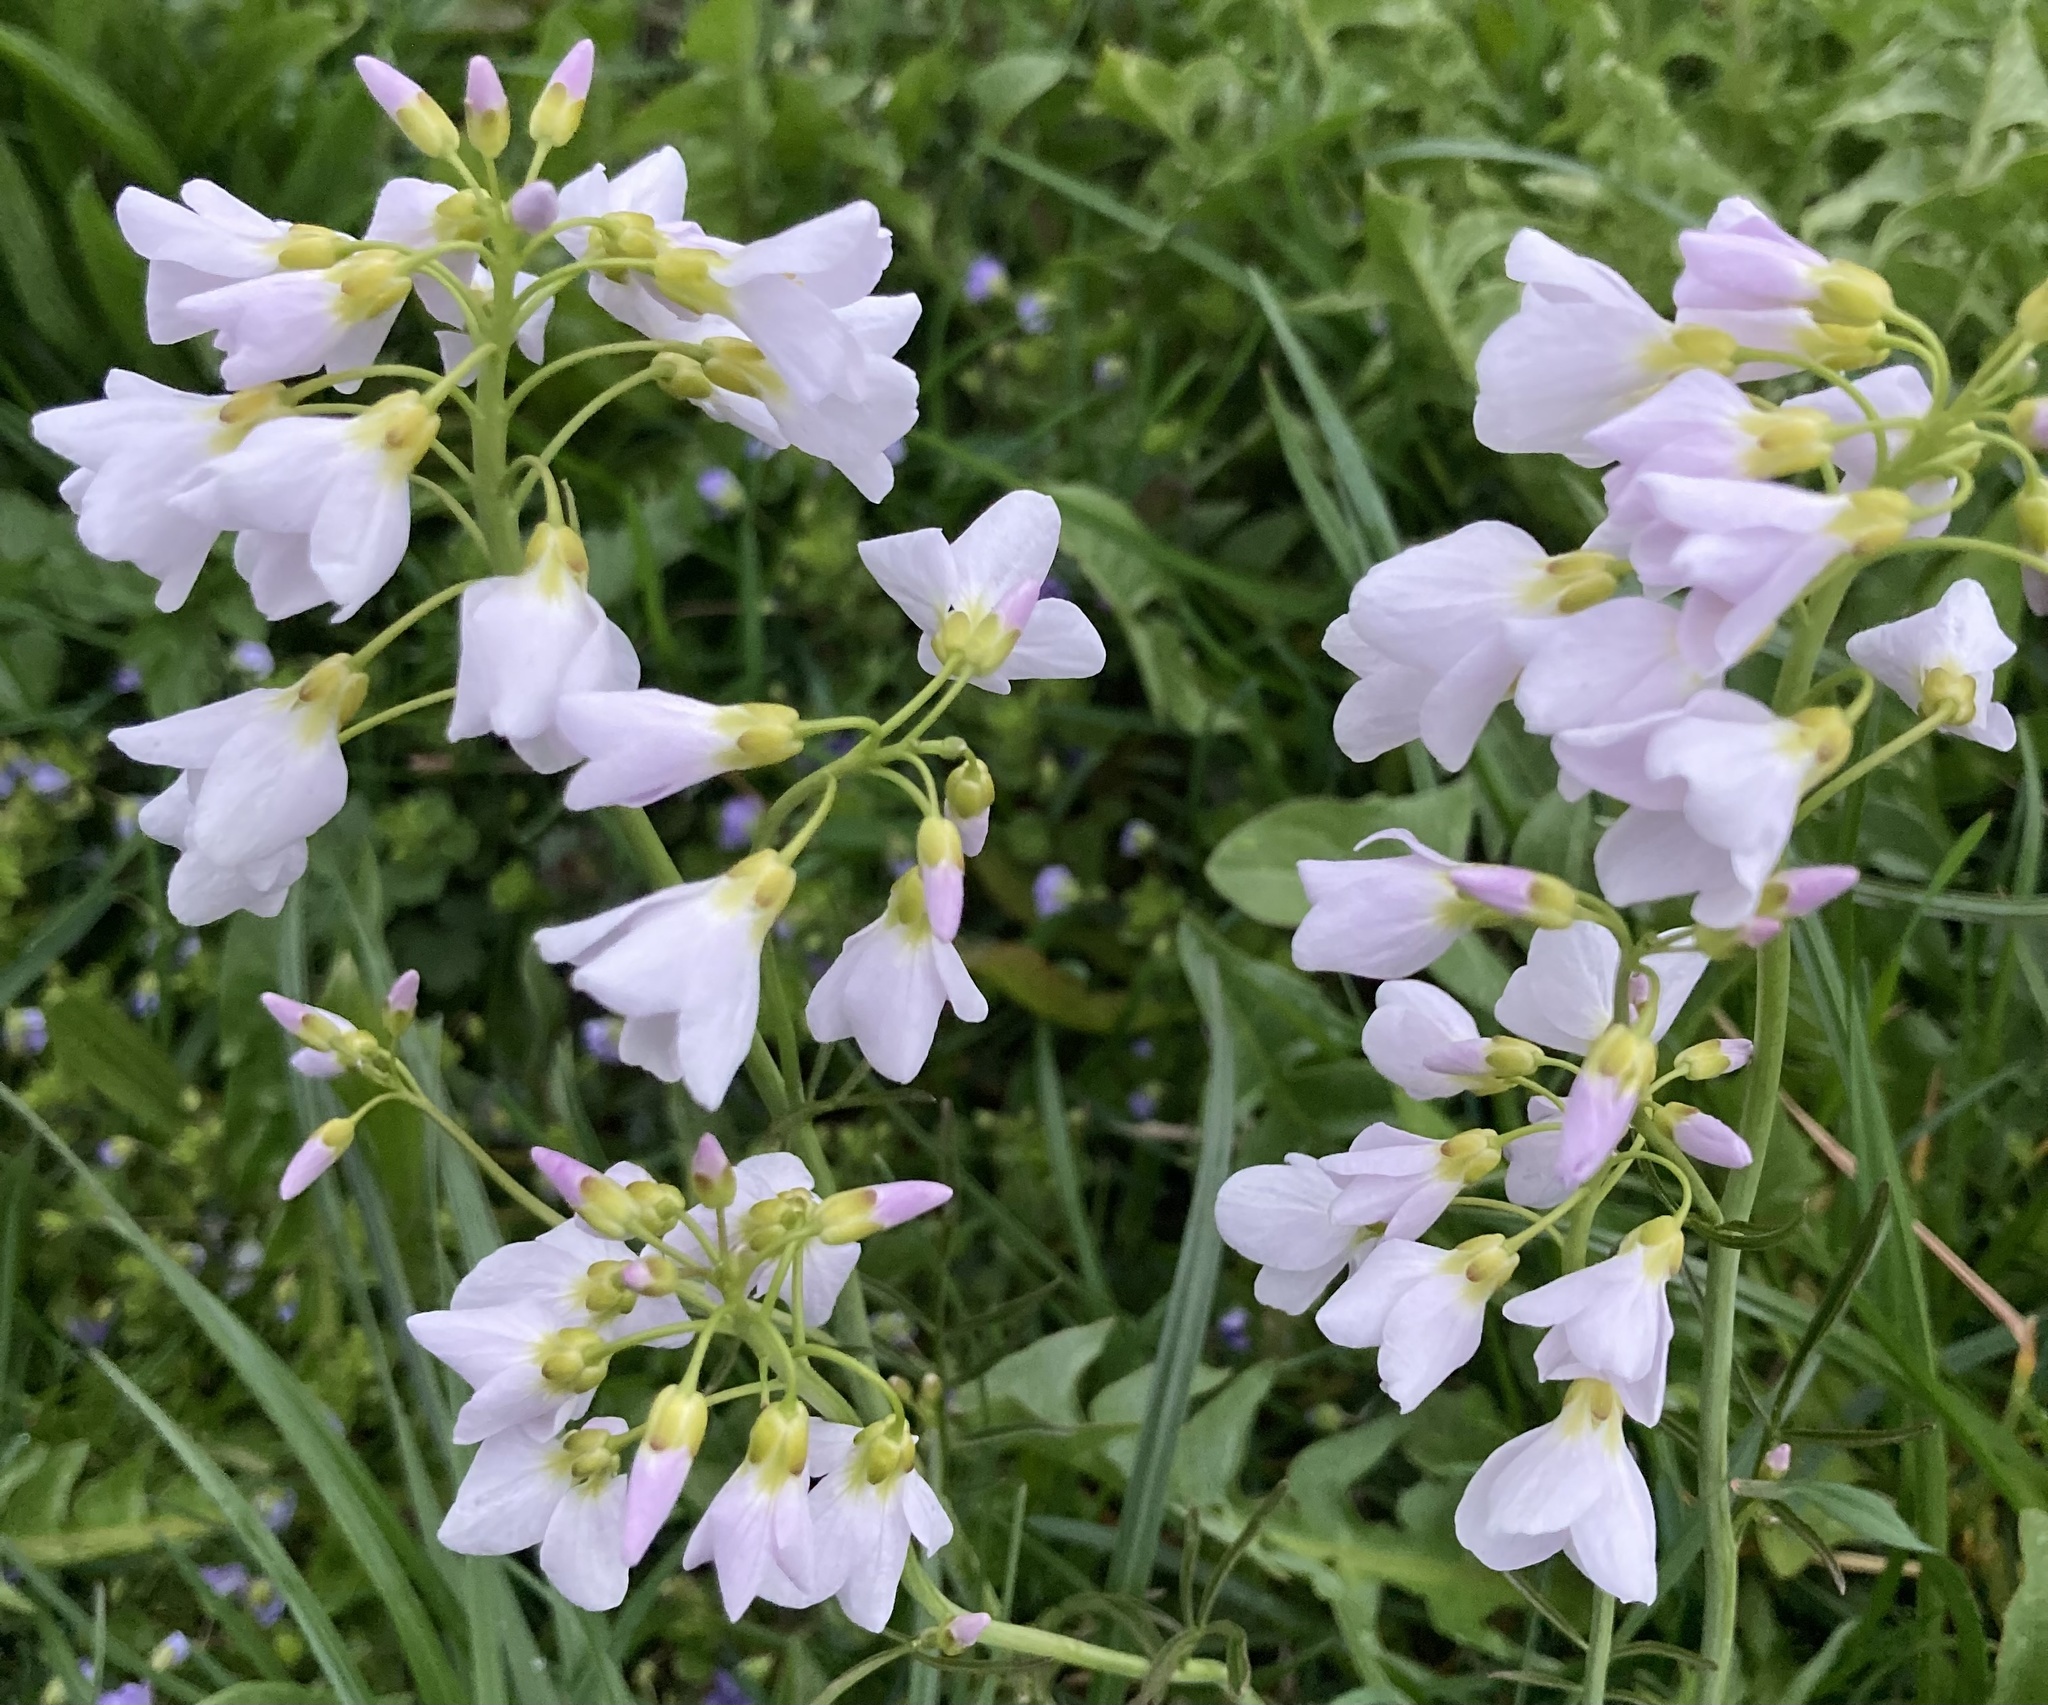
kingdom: Plantae
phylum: Tracheophyta
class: Magnoliopsida
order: Brassicales
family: Brassicaceae
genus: Cardamine
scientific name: Cardamine pratensis
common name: Cuckoo flower
